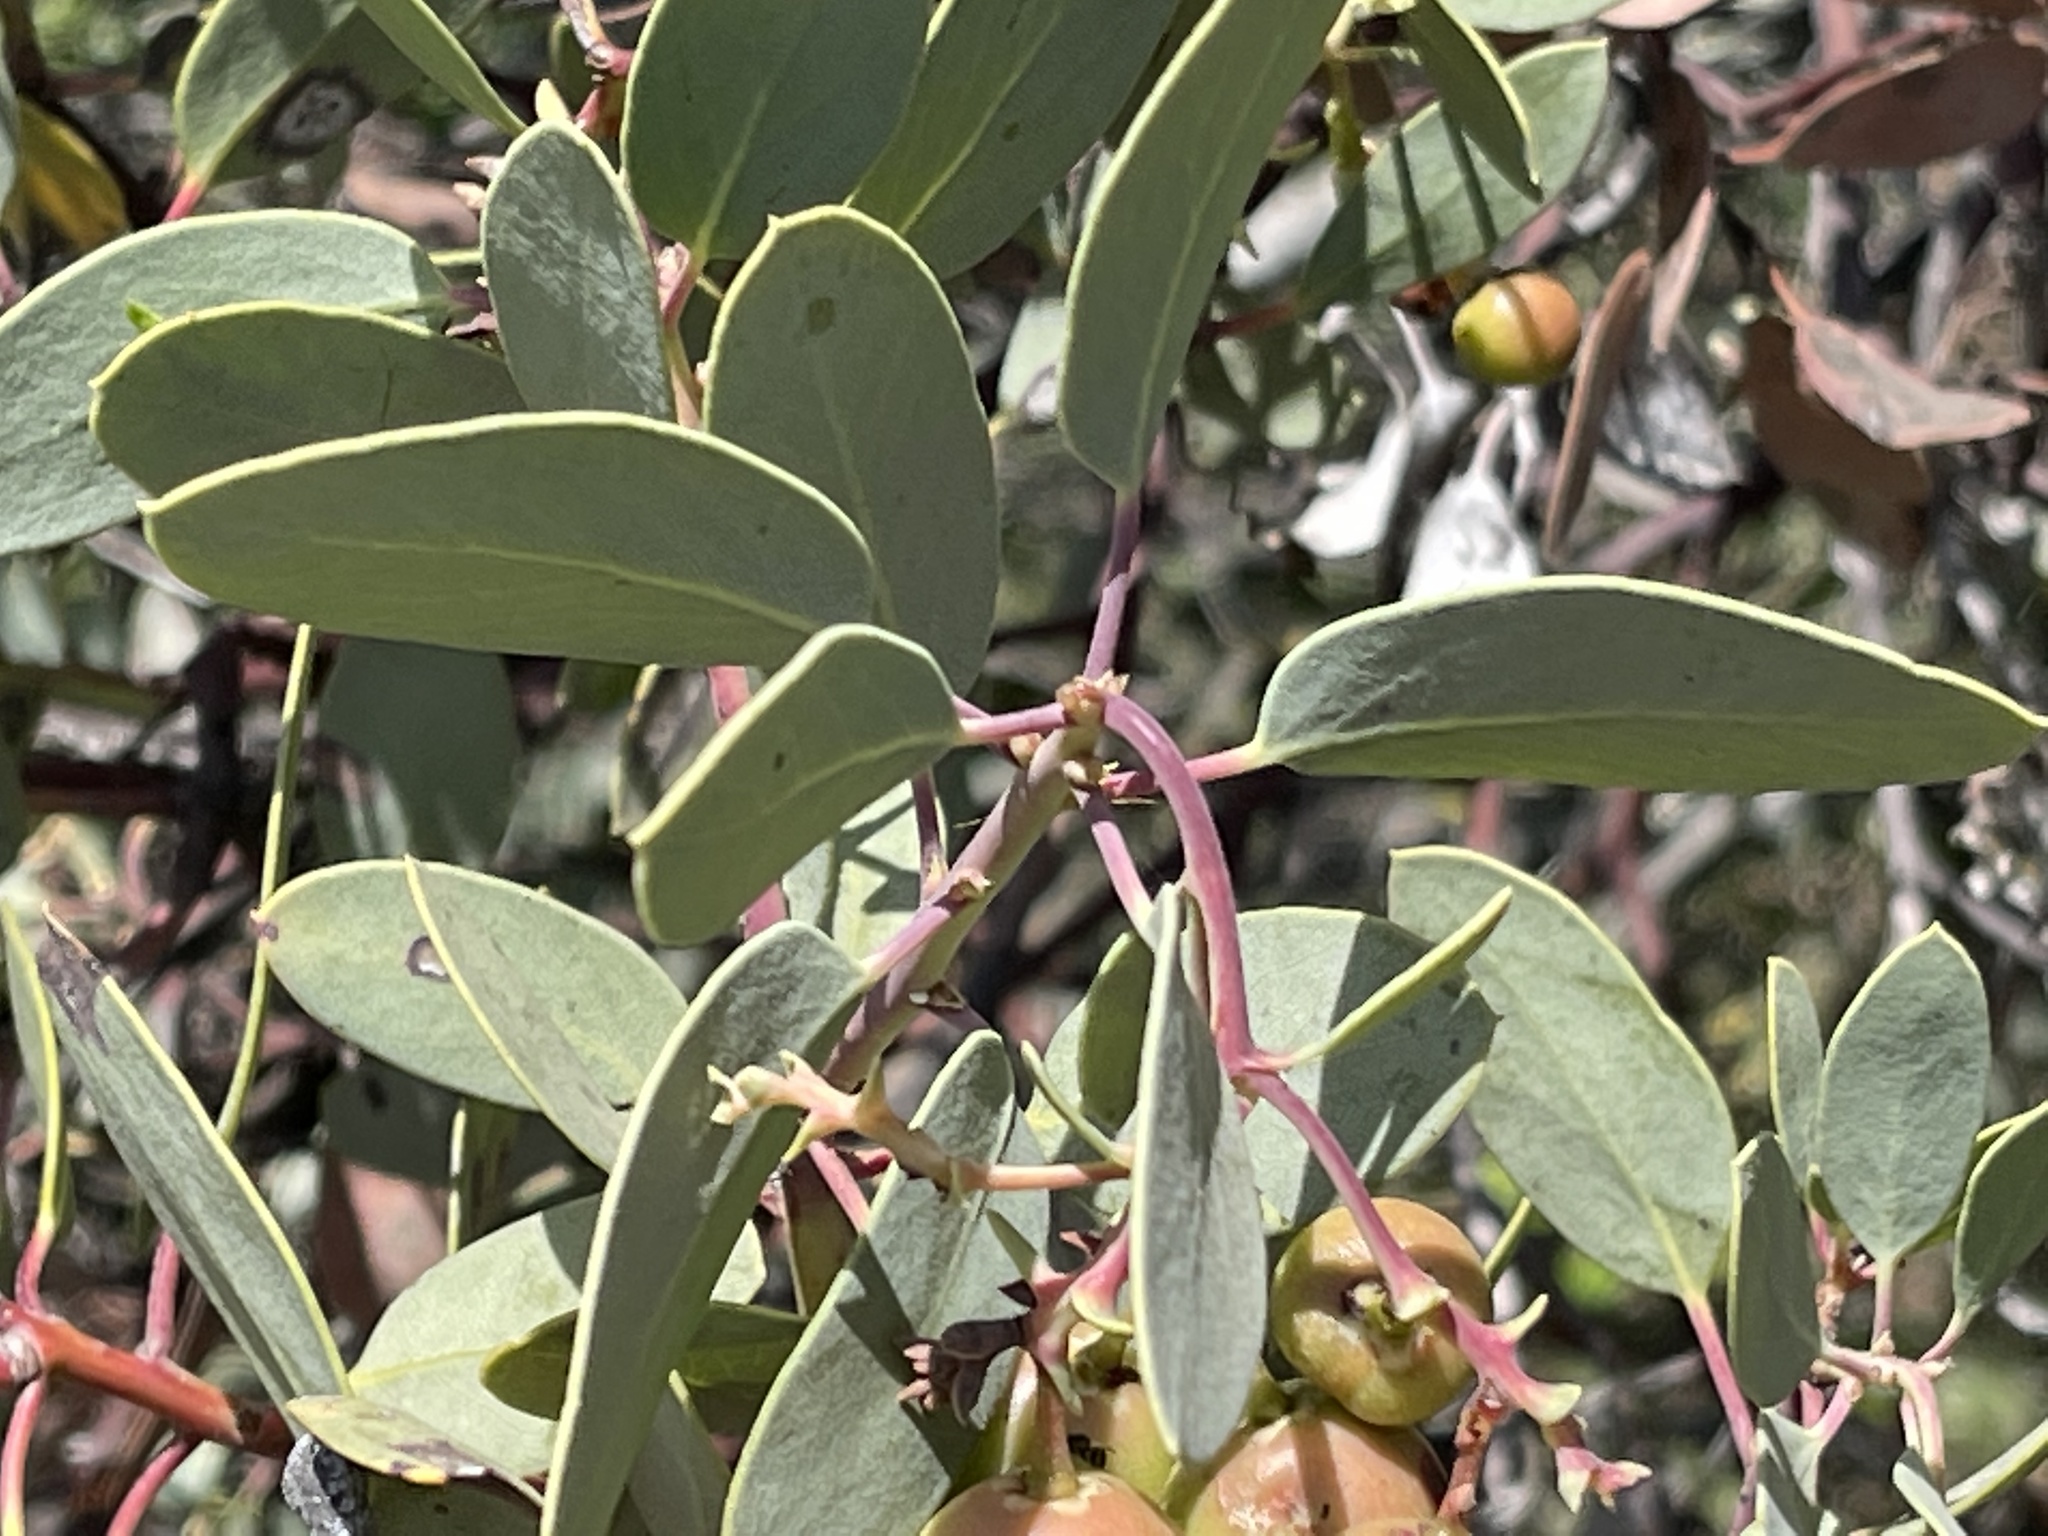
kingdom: Plantae
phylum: Tracheophyta
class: Magnoliopsida
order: Ericales
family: Ericaceae
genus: Arctostaphylos
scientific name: Arctostaphylos glauca
